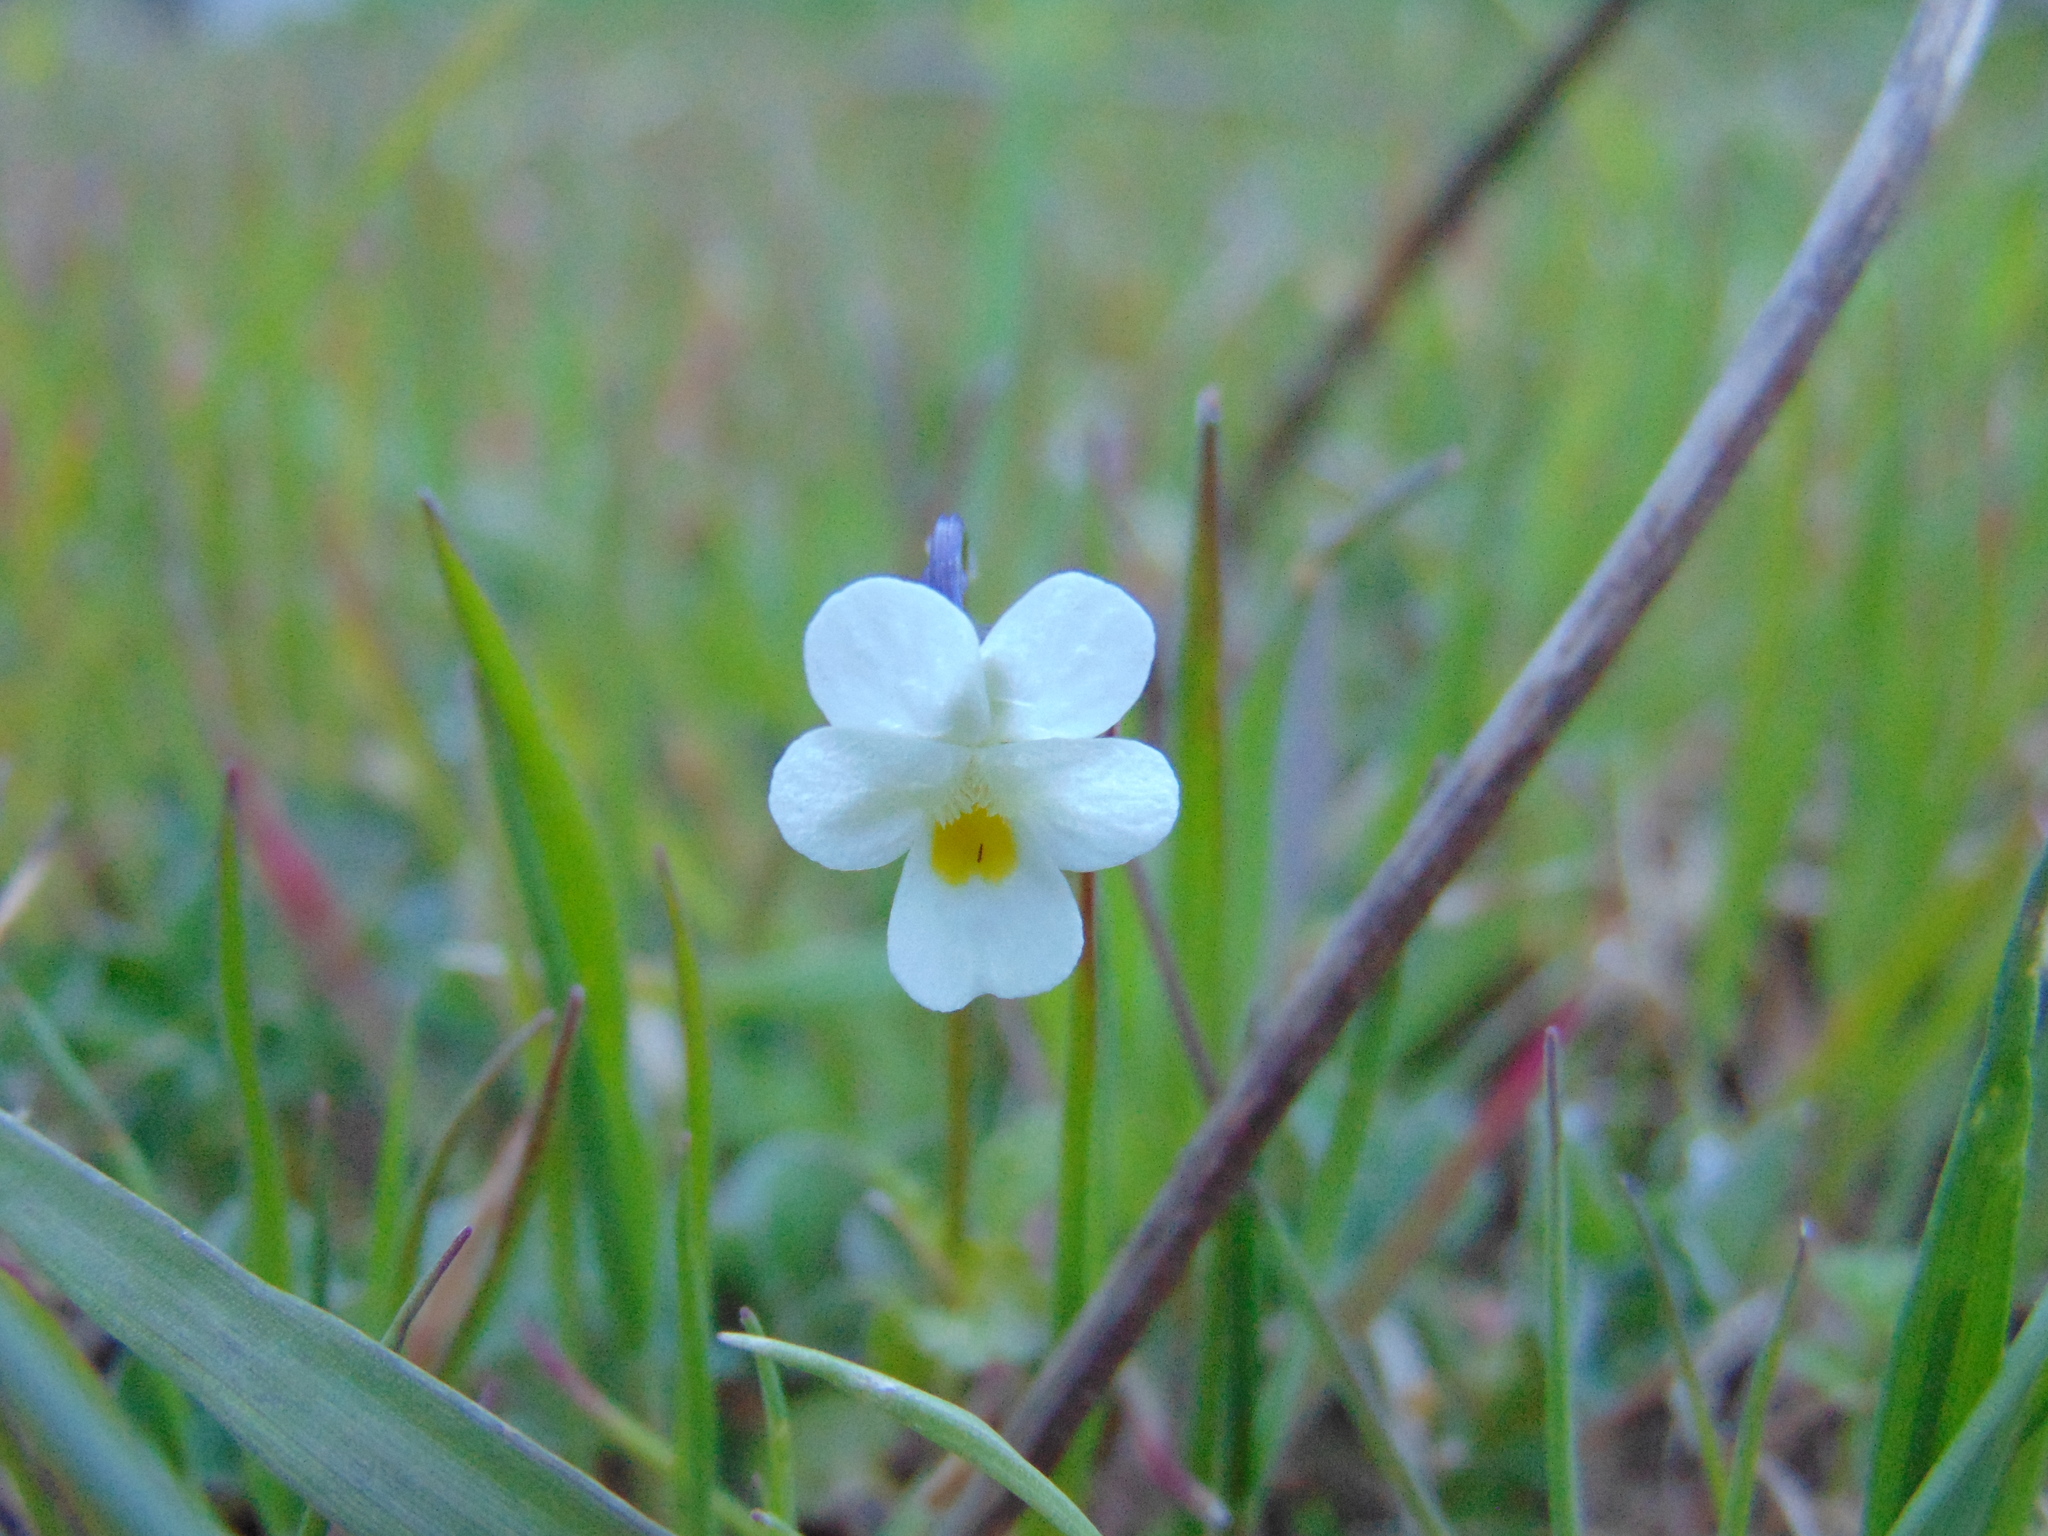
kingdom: Plantae
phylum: Tracheophyta
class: Magnoliopsida
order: Malpighiales
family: Violaceae
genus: Viola
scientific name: Viola arvensis
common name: Field pansy
